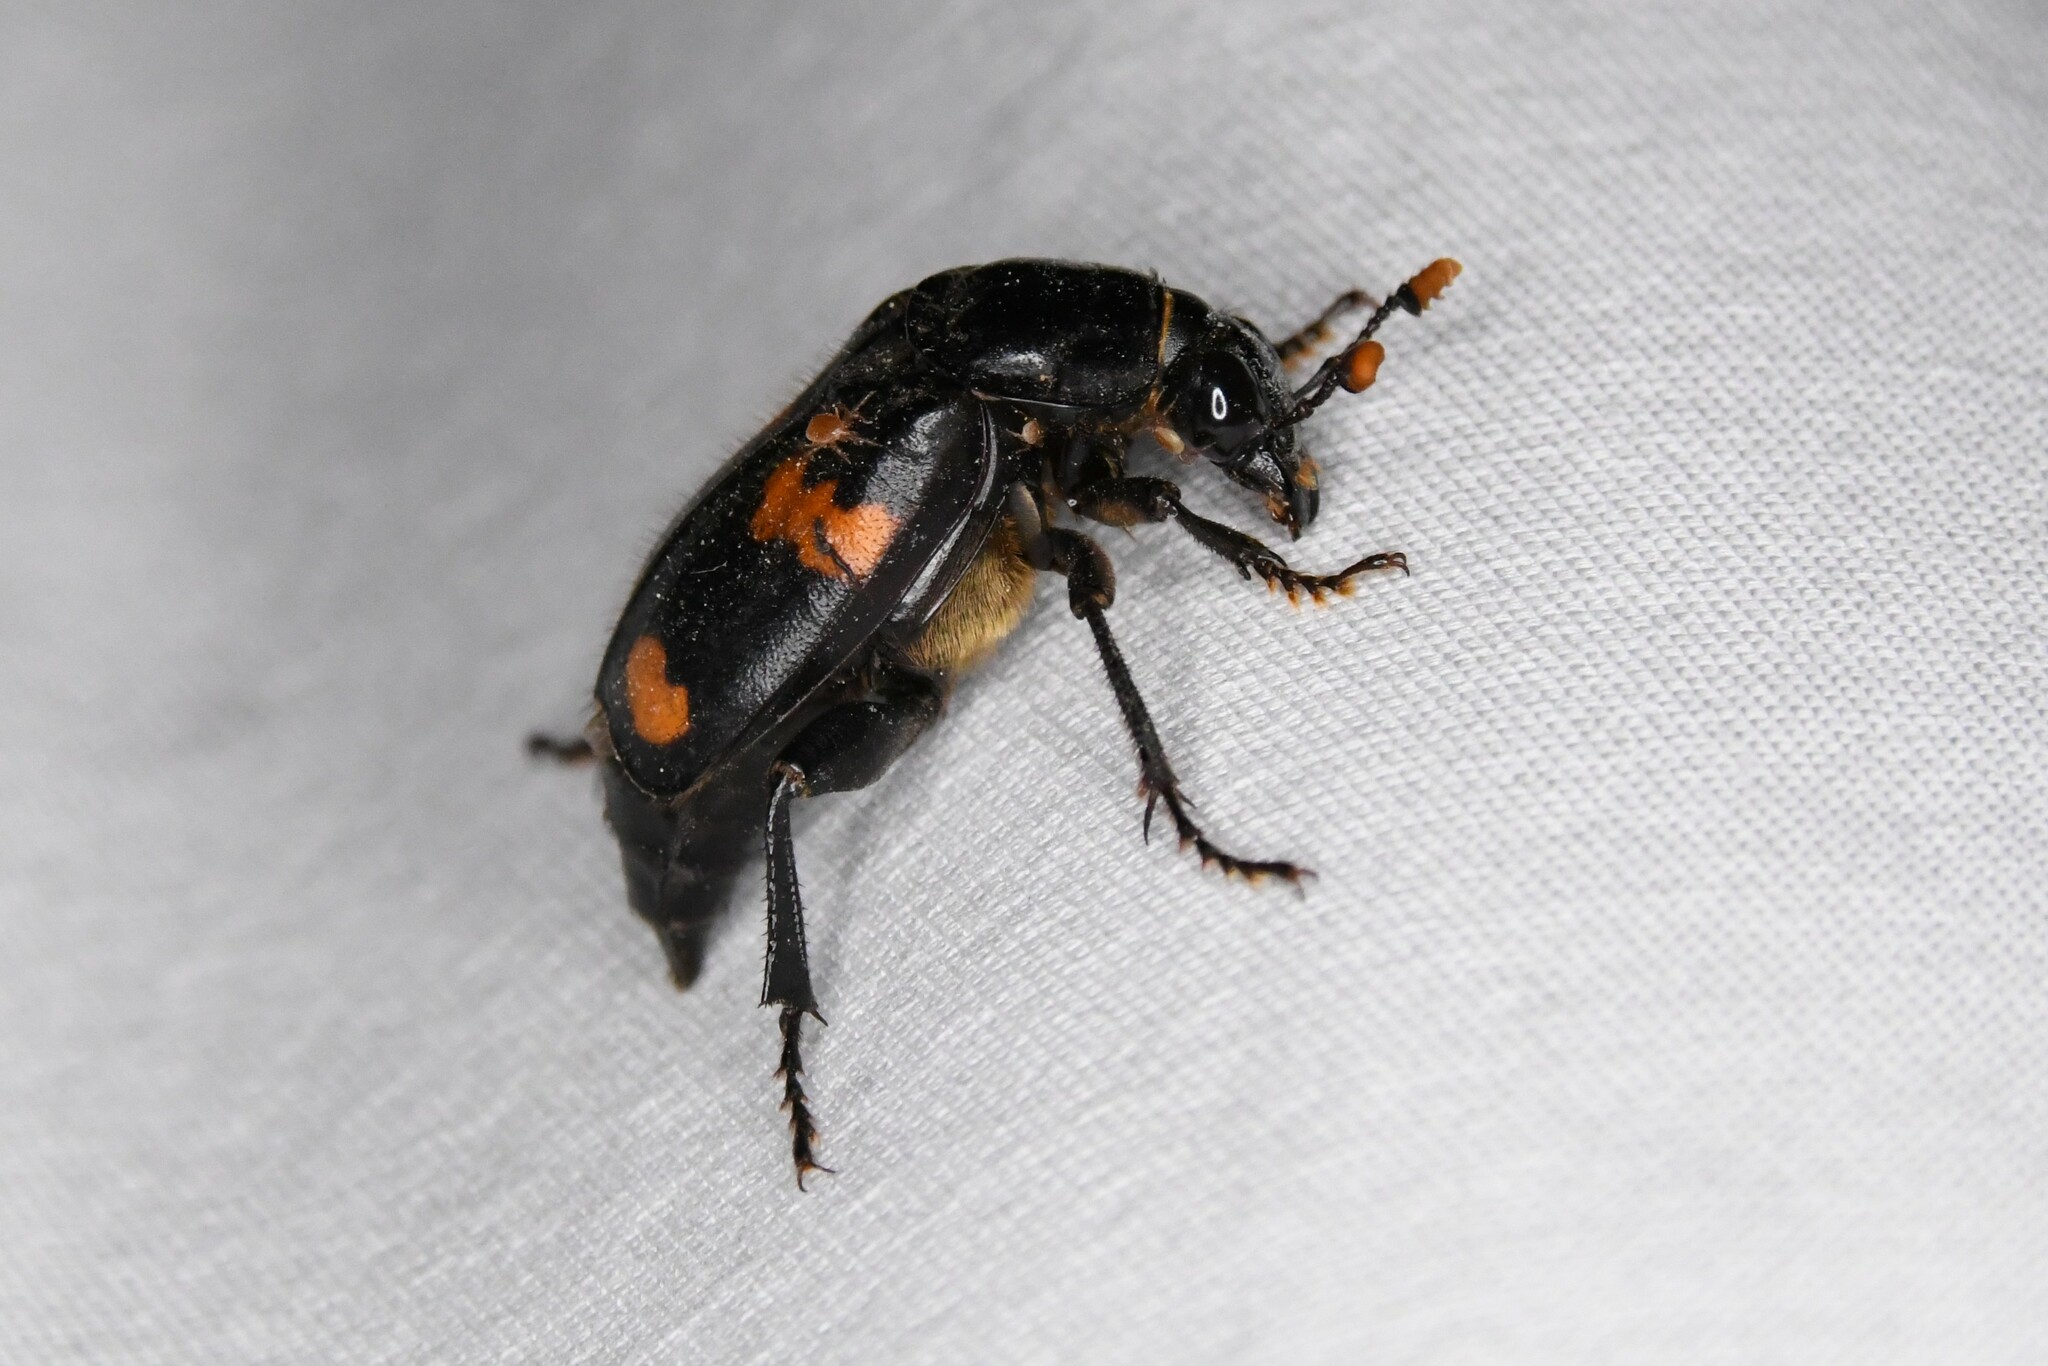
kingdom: Animalia
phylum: Arthropoda
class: Insecta
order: Coleoptera
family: Staphylinidae
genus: Nicrophorus
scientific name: Nicrophorus orbicollis
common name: Roundneck sexton beetle
